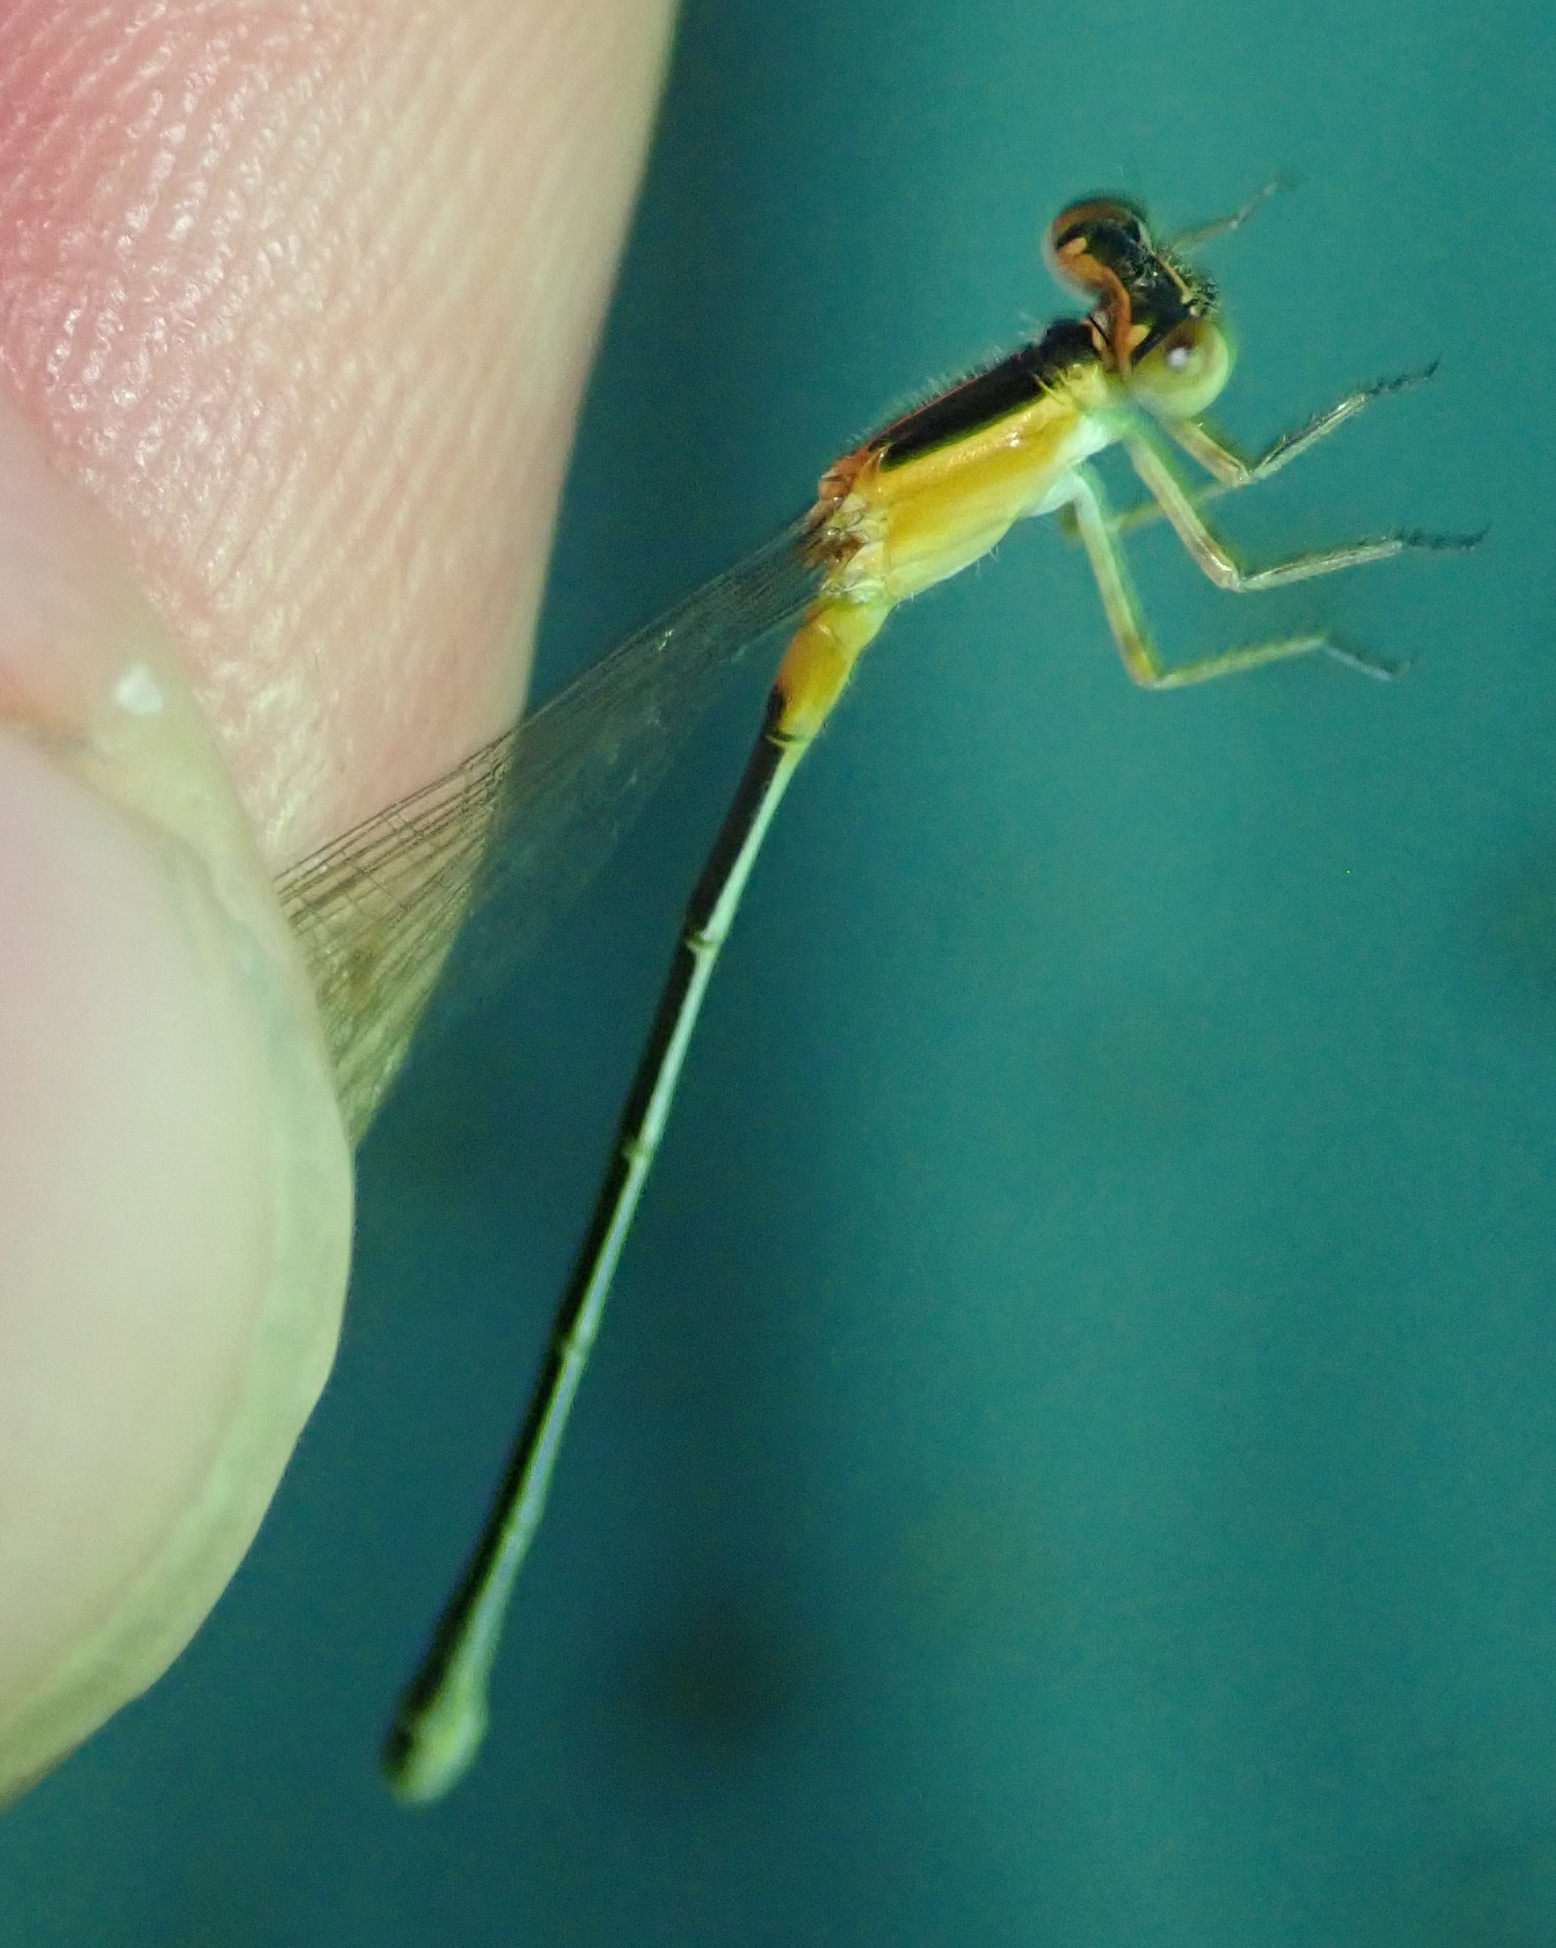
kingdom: Animalia
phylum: Arthropoda
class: Insecta
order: Odonata
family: Coenagrionidae
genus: Ischnura
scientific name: Ischnura senegalensis
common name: Tropical bluetail
